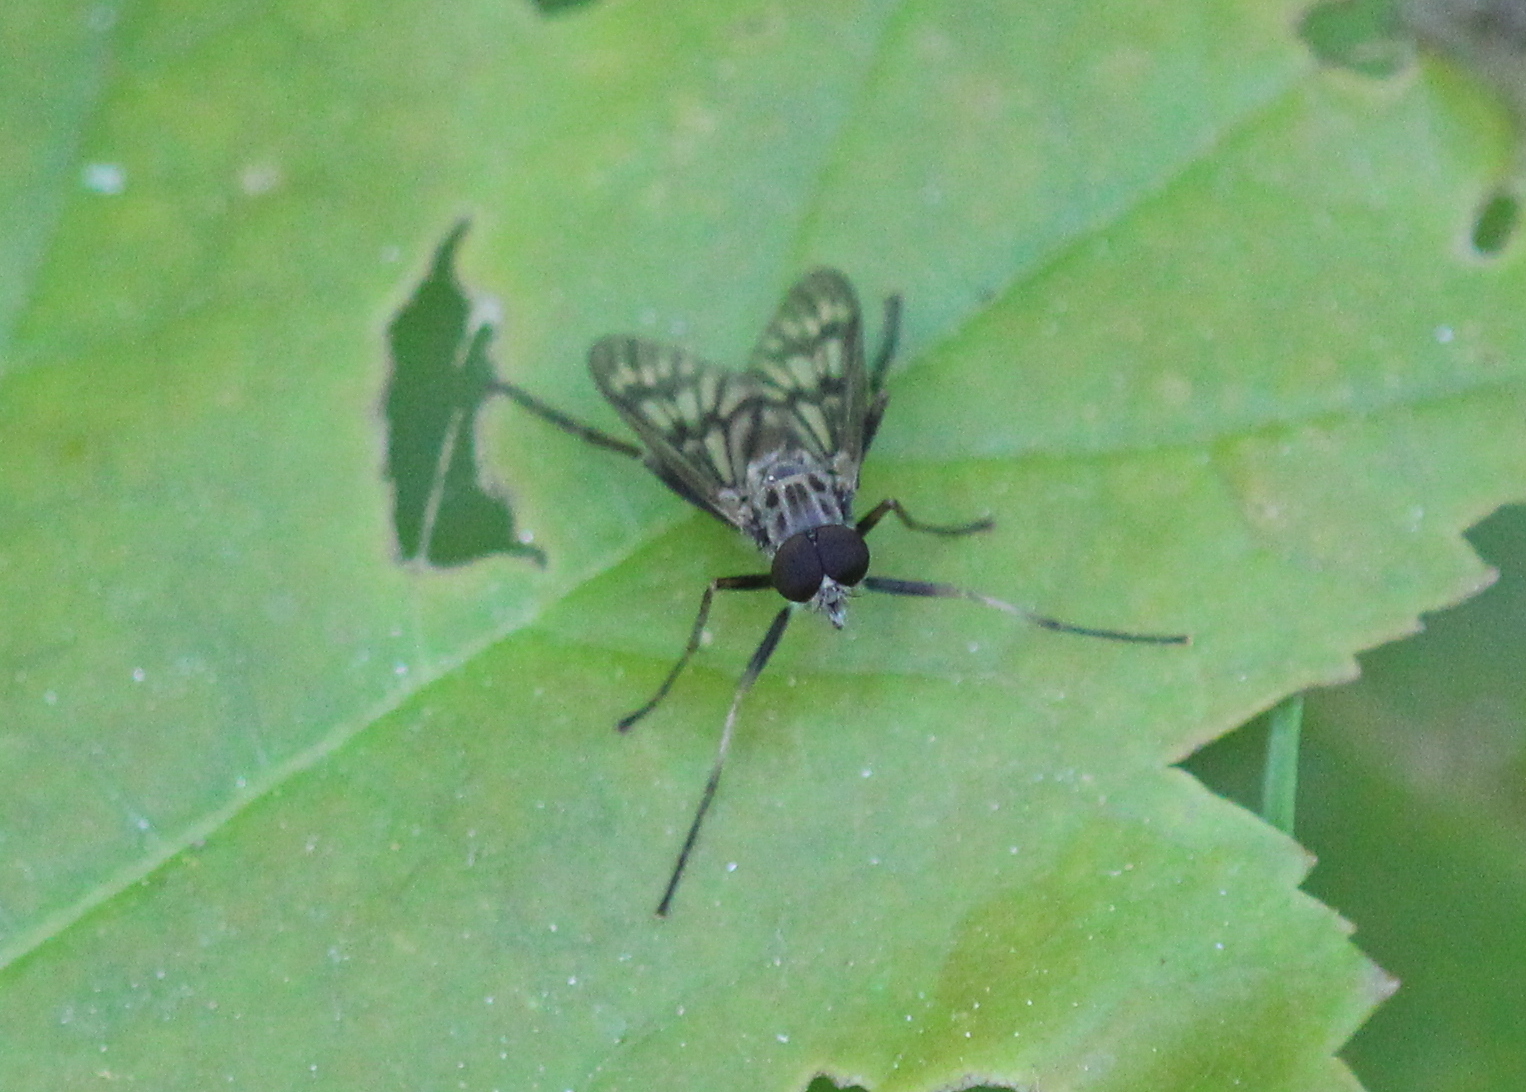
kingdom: Animalia
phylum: Arthropoda
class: Insecta
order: Diptera
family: Rhagionidae
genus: Rhagio
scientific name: Rhagio mystaceus
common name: Common snipe fly
